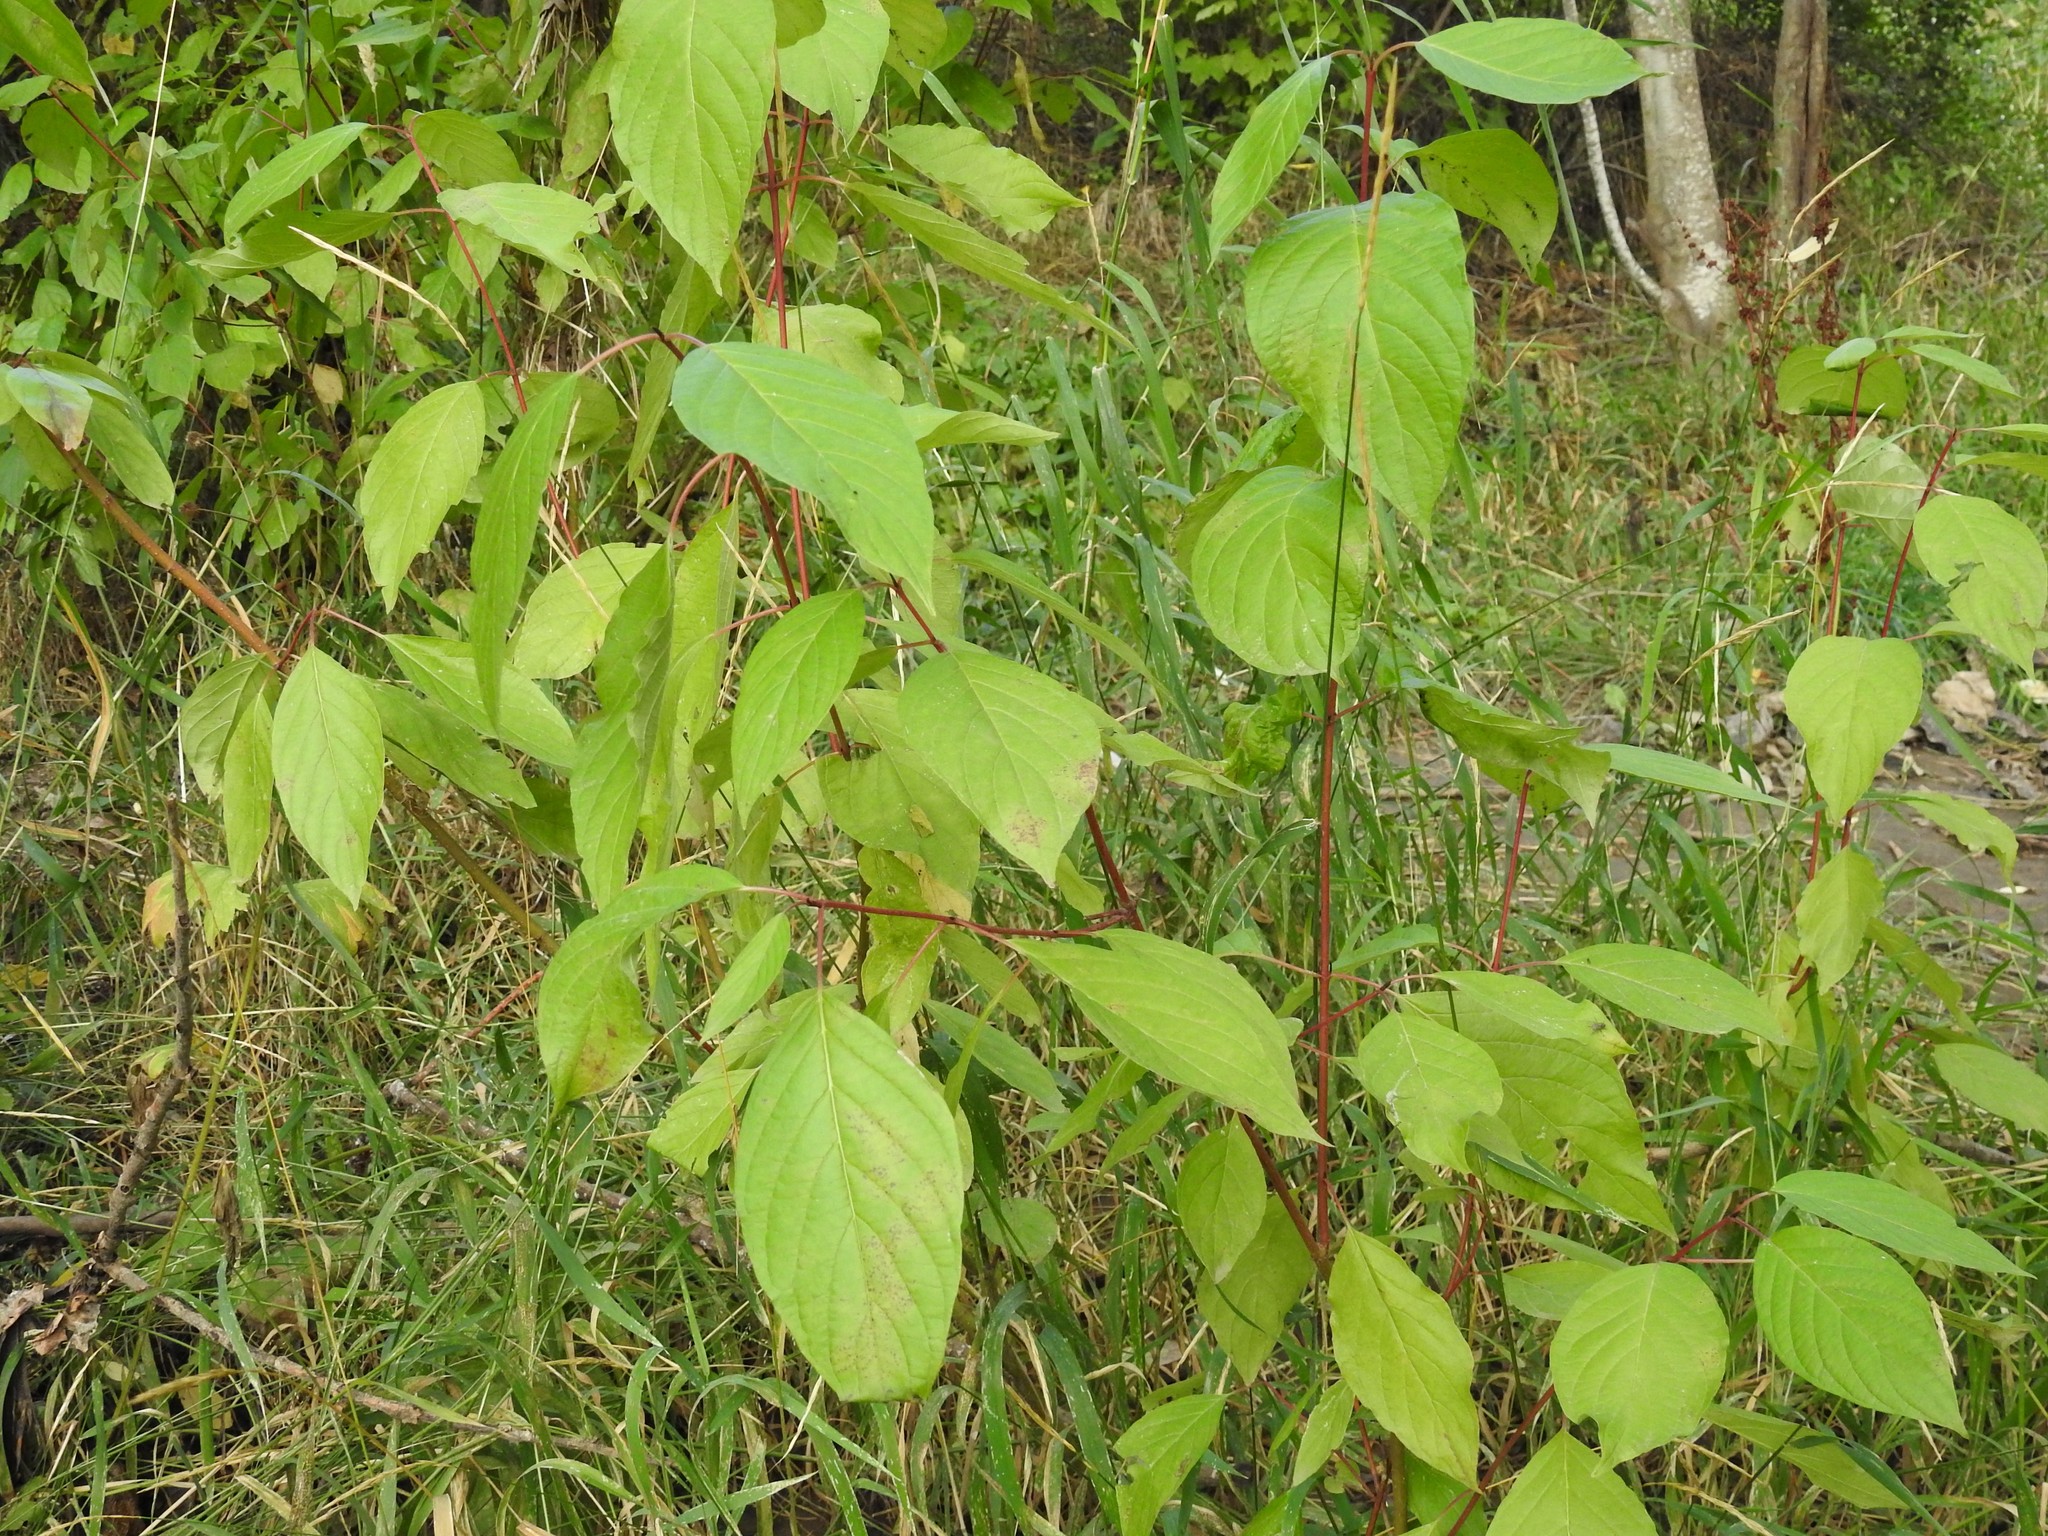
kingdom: Plantae
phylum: Tracheophyta
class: Magnoliopsida
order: Cornales
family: Cornaceae
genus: Cornus
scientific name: Cornus sericea
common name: Red-osier dogwood
